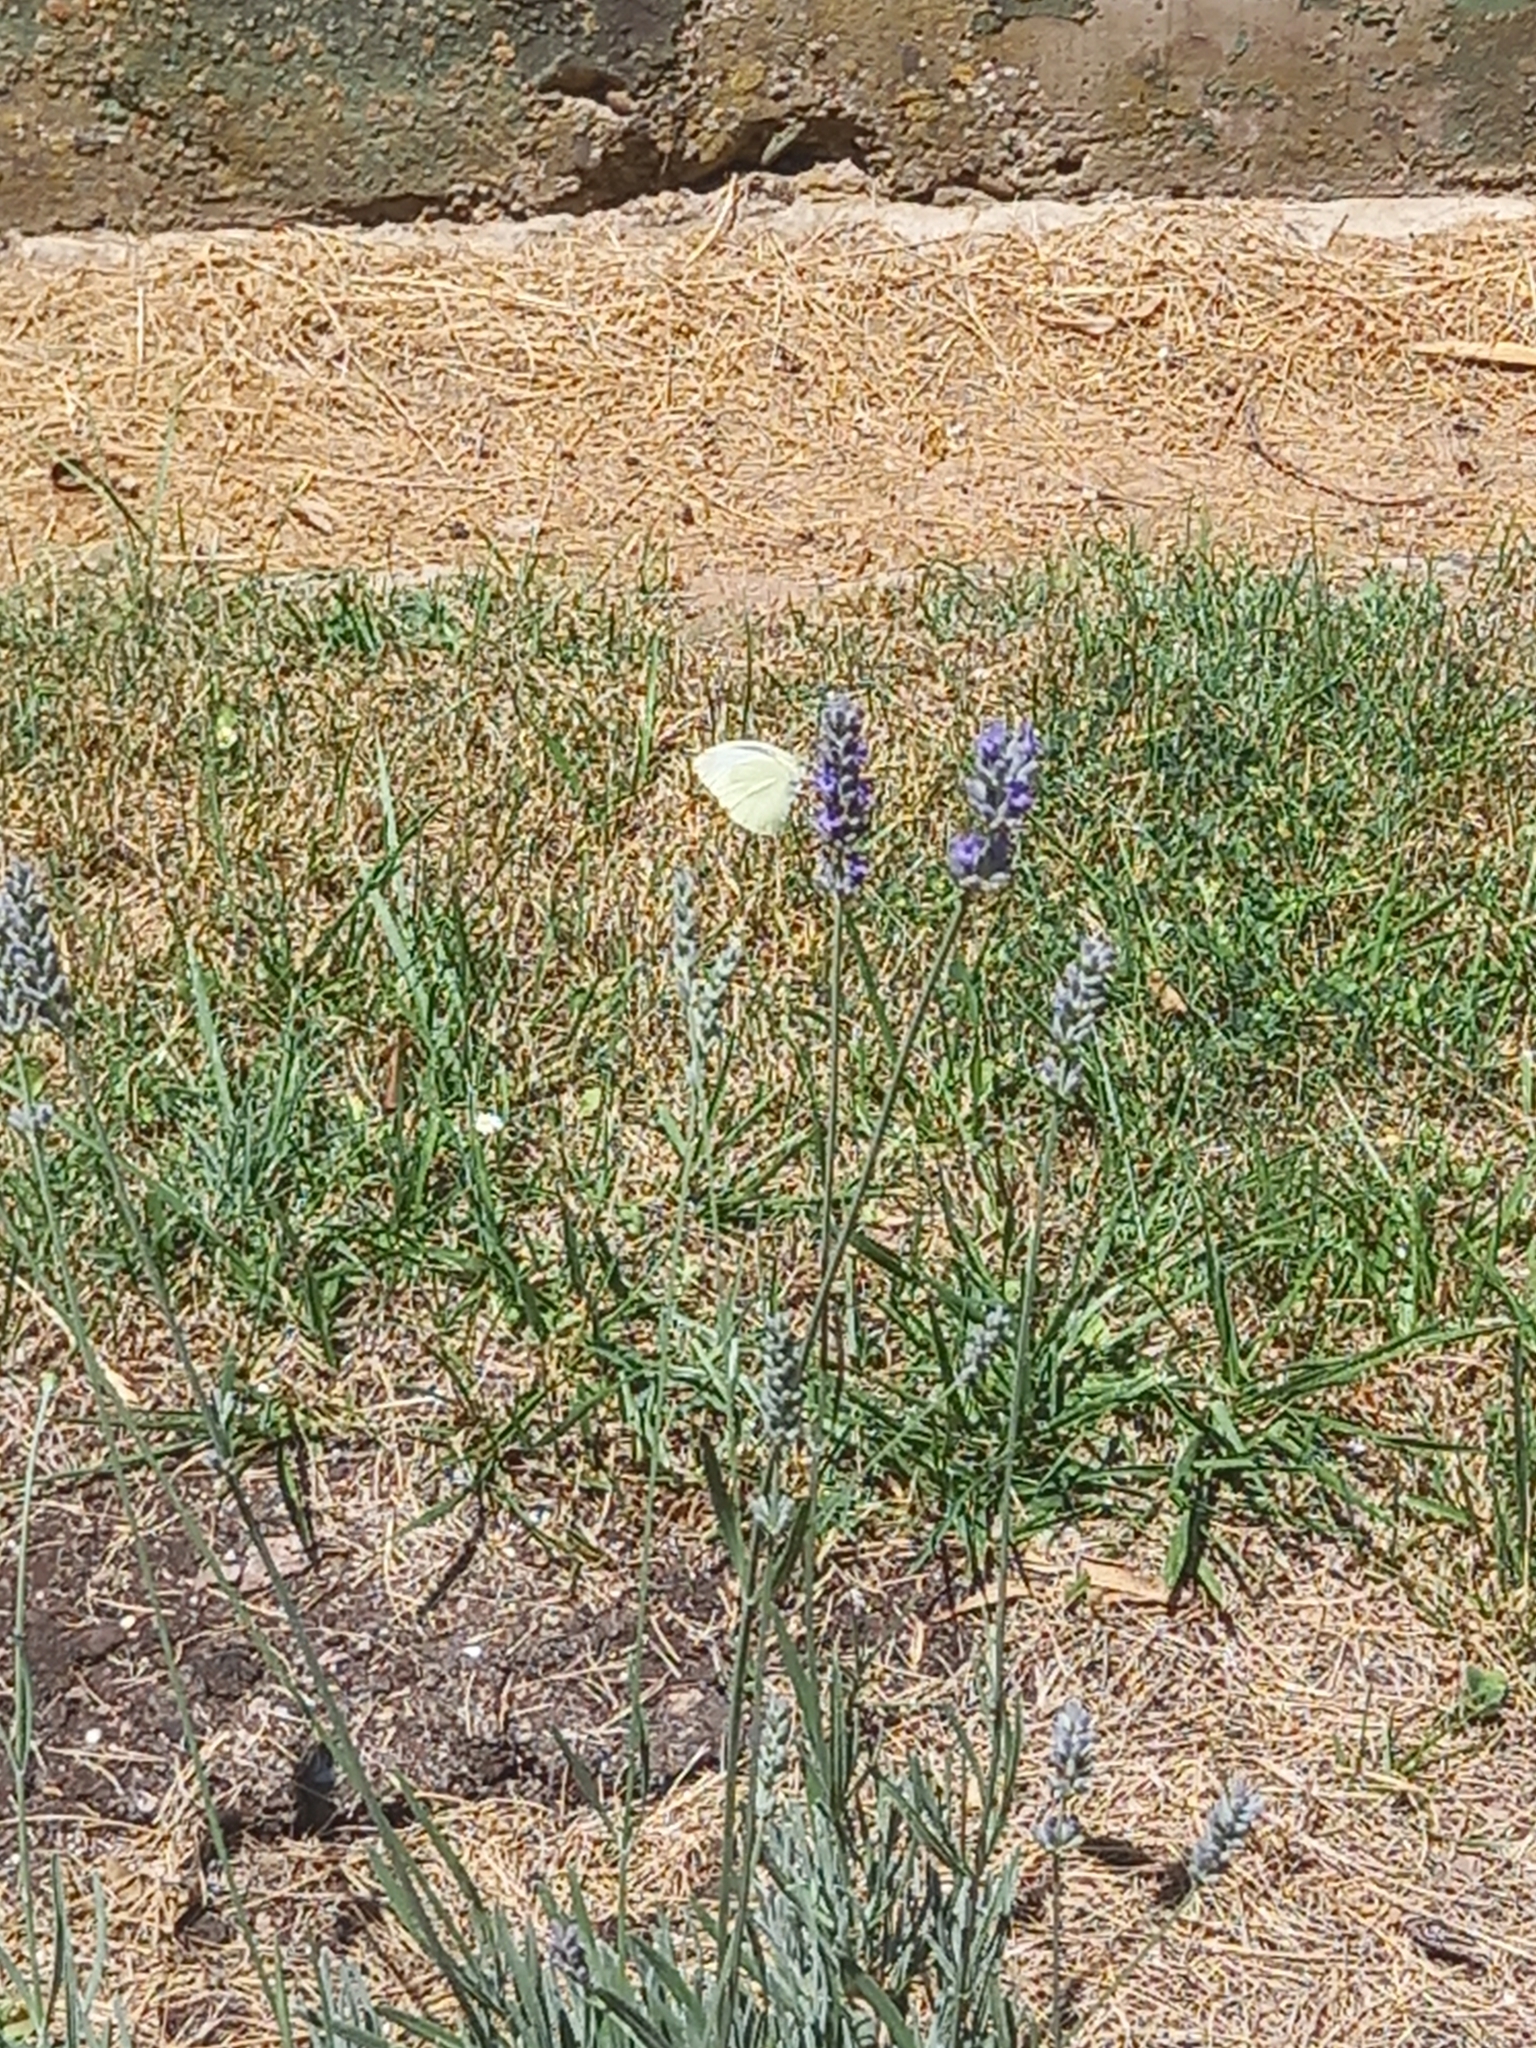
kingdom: Animalia
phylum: Arthropoda
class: Insecta
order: Lepidoptera
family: Pieridae
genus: Pieris
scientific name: Pieris rapae
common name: Small white
